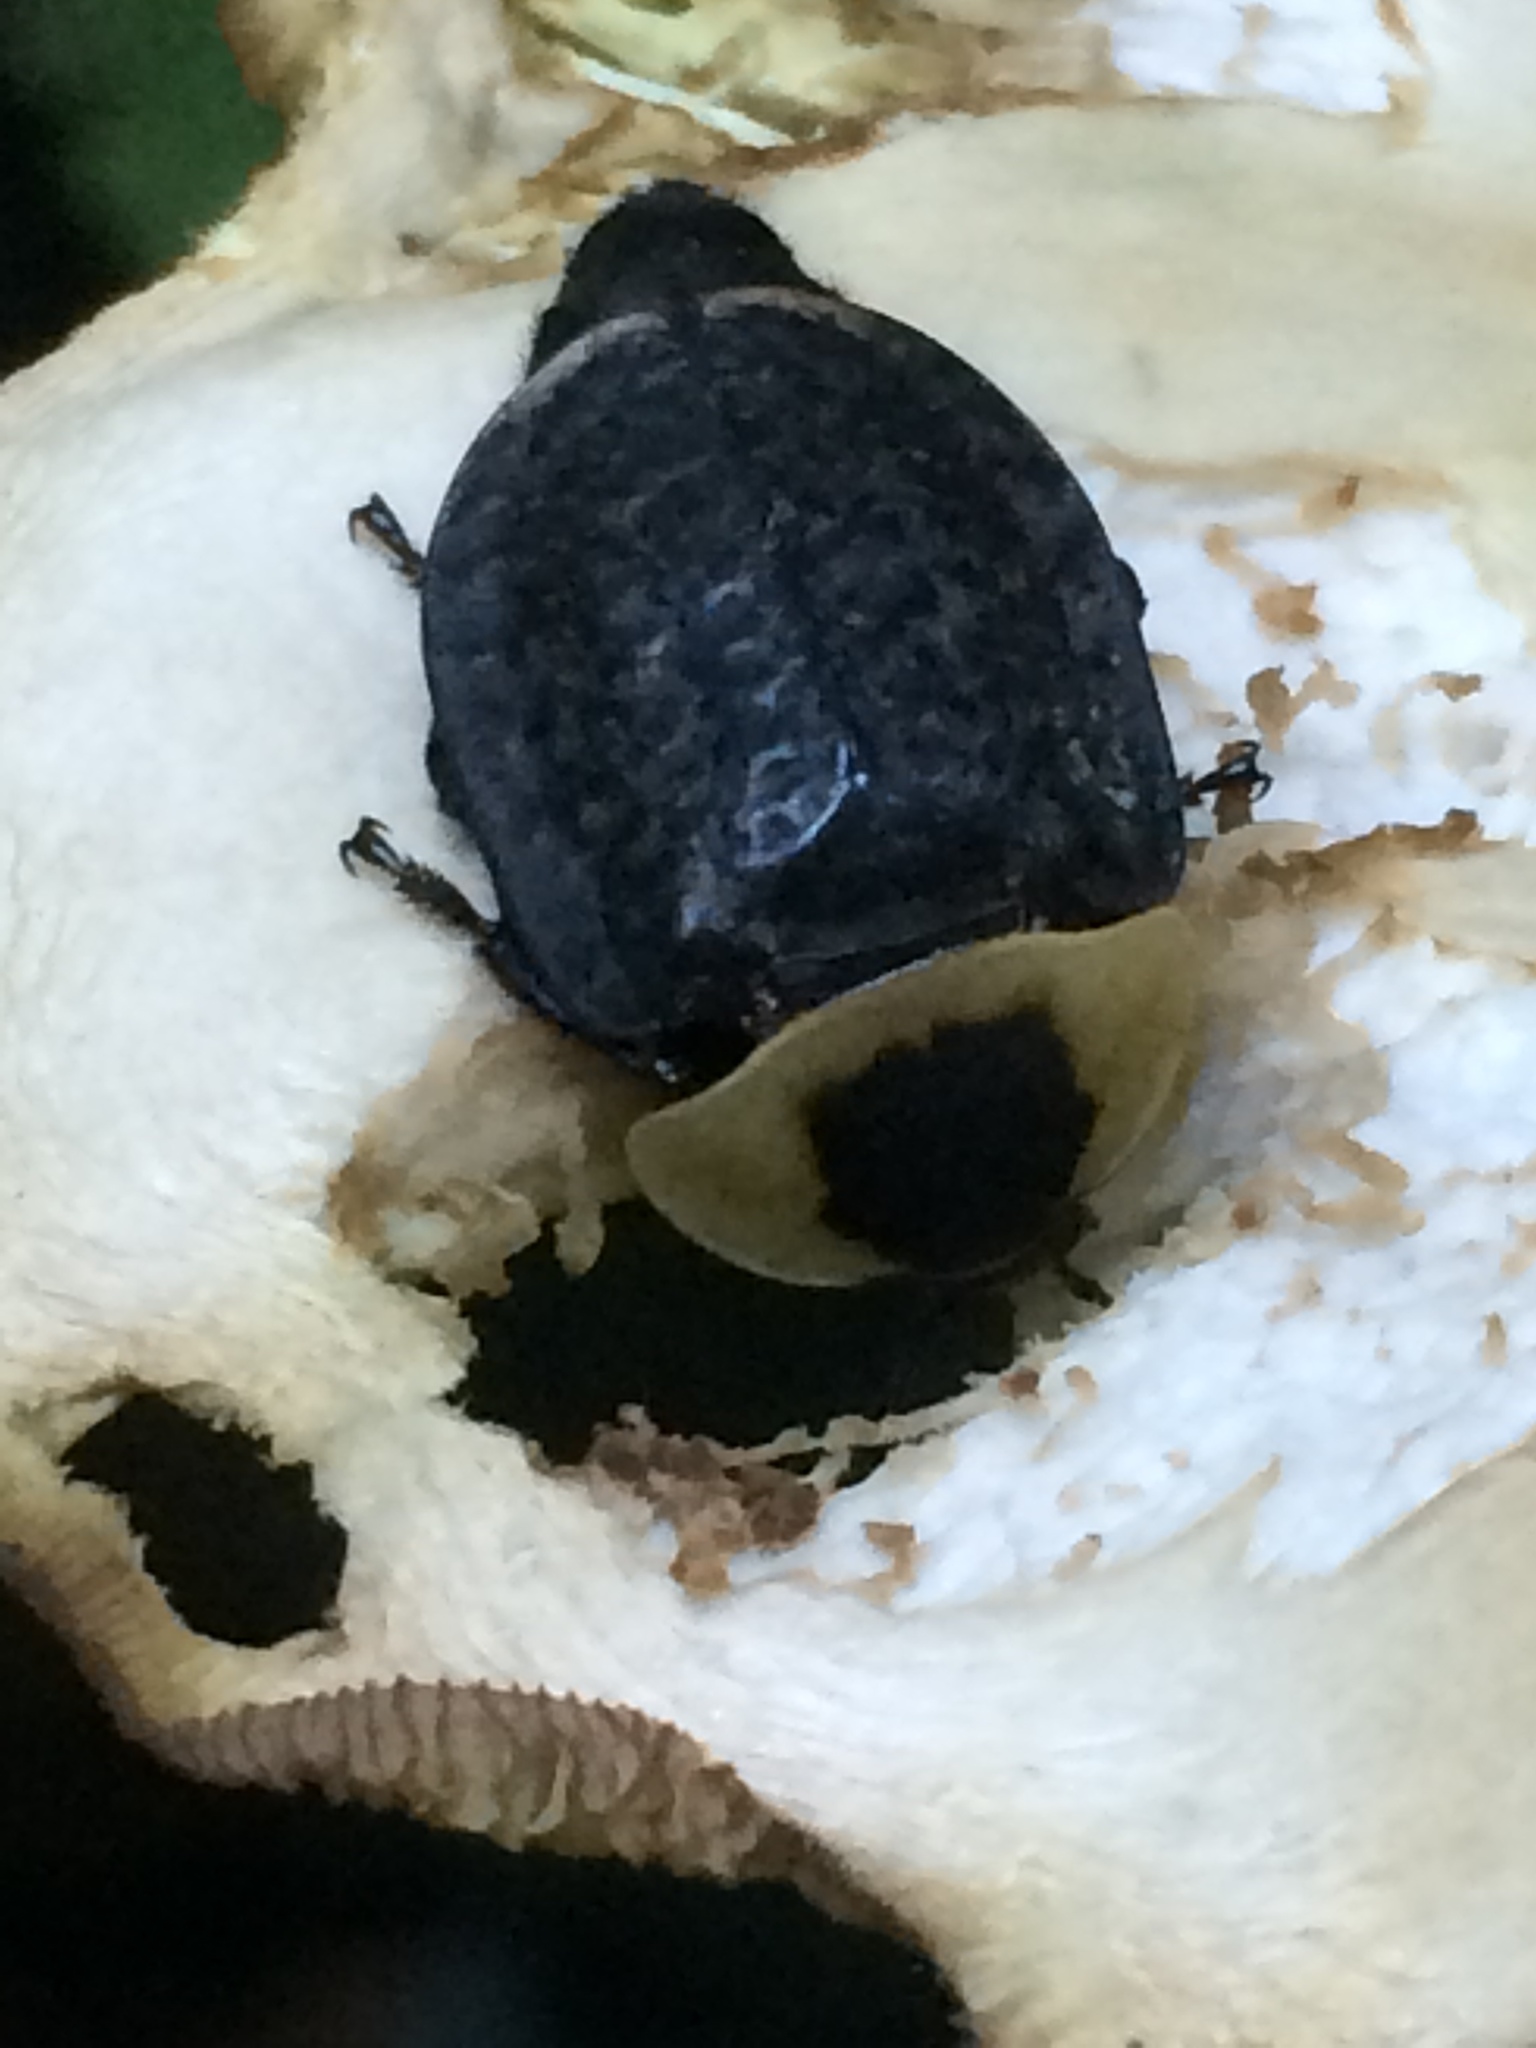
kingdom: Animalia
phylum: Arthropoda
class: Insecta
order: Coleoptera
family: Staphylinidae
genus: Necrophila
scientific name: Necrophila americana
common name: American carrion beetle
